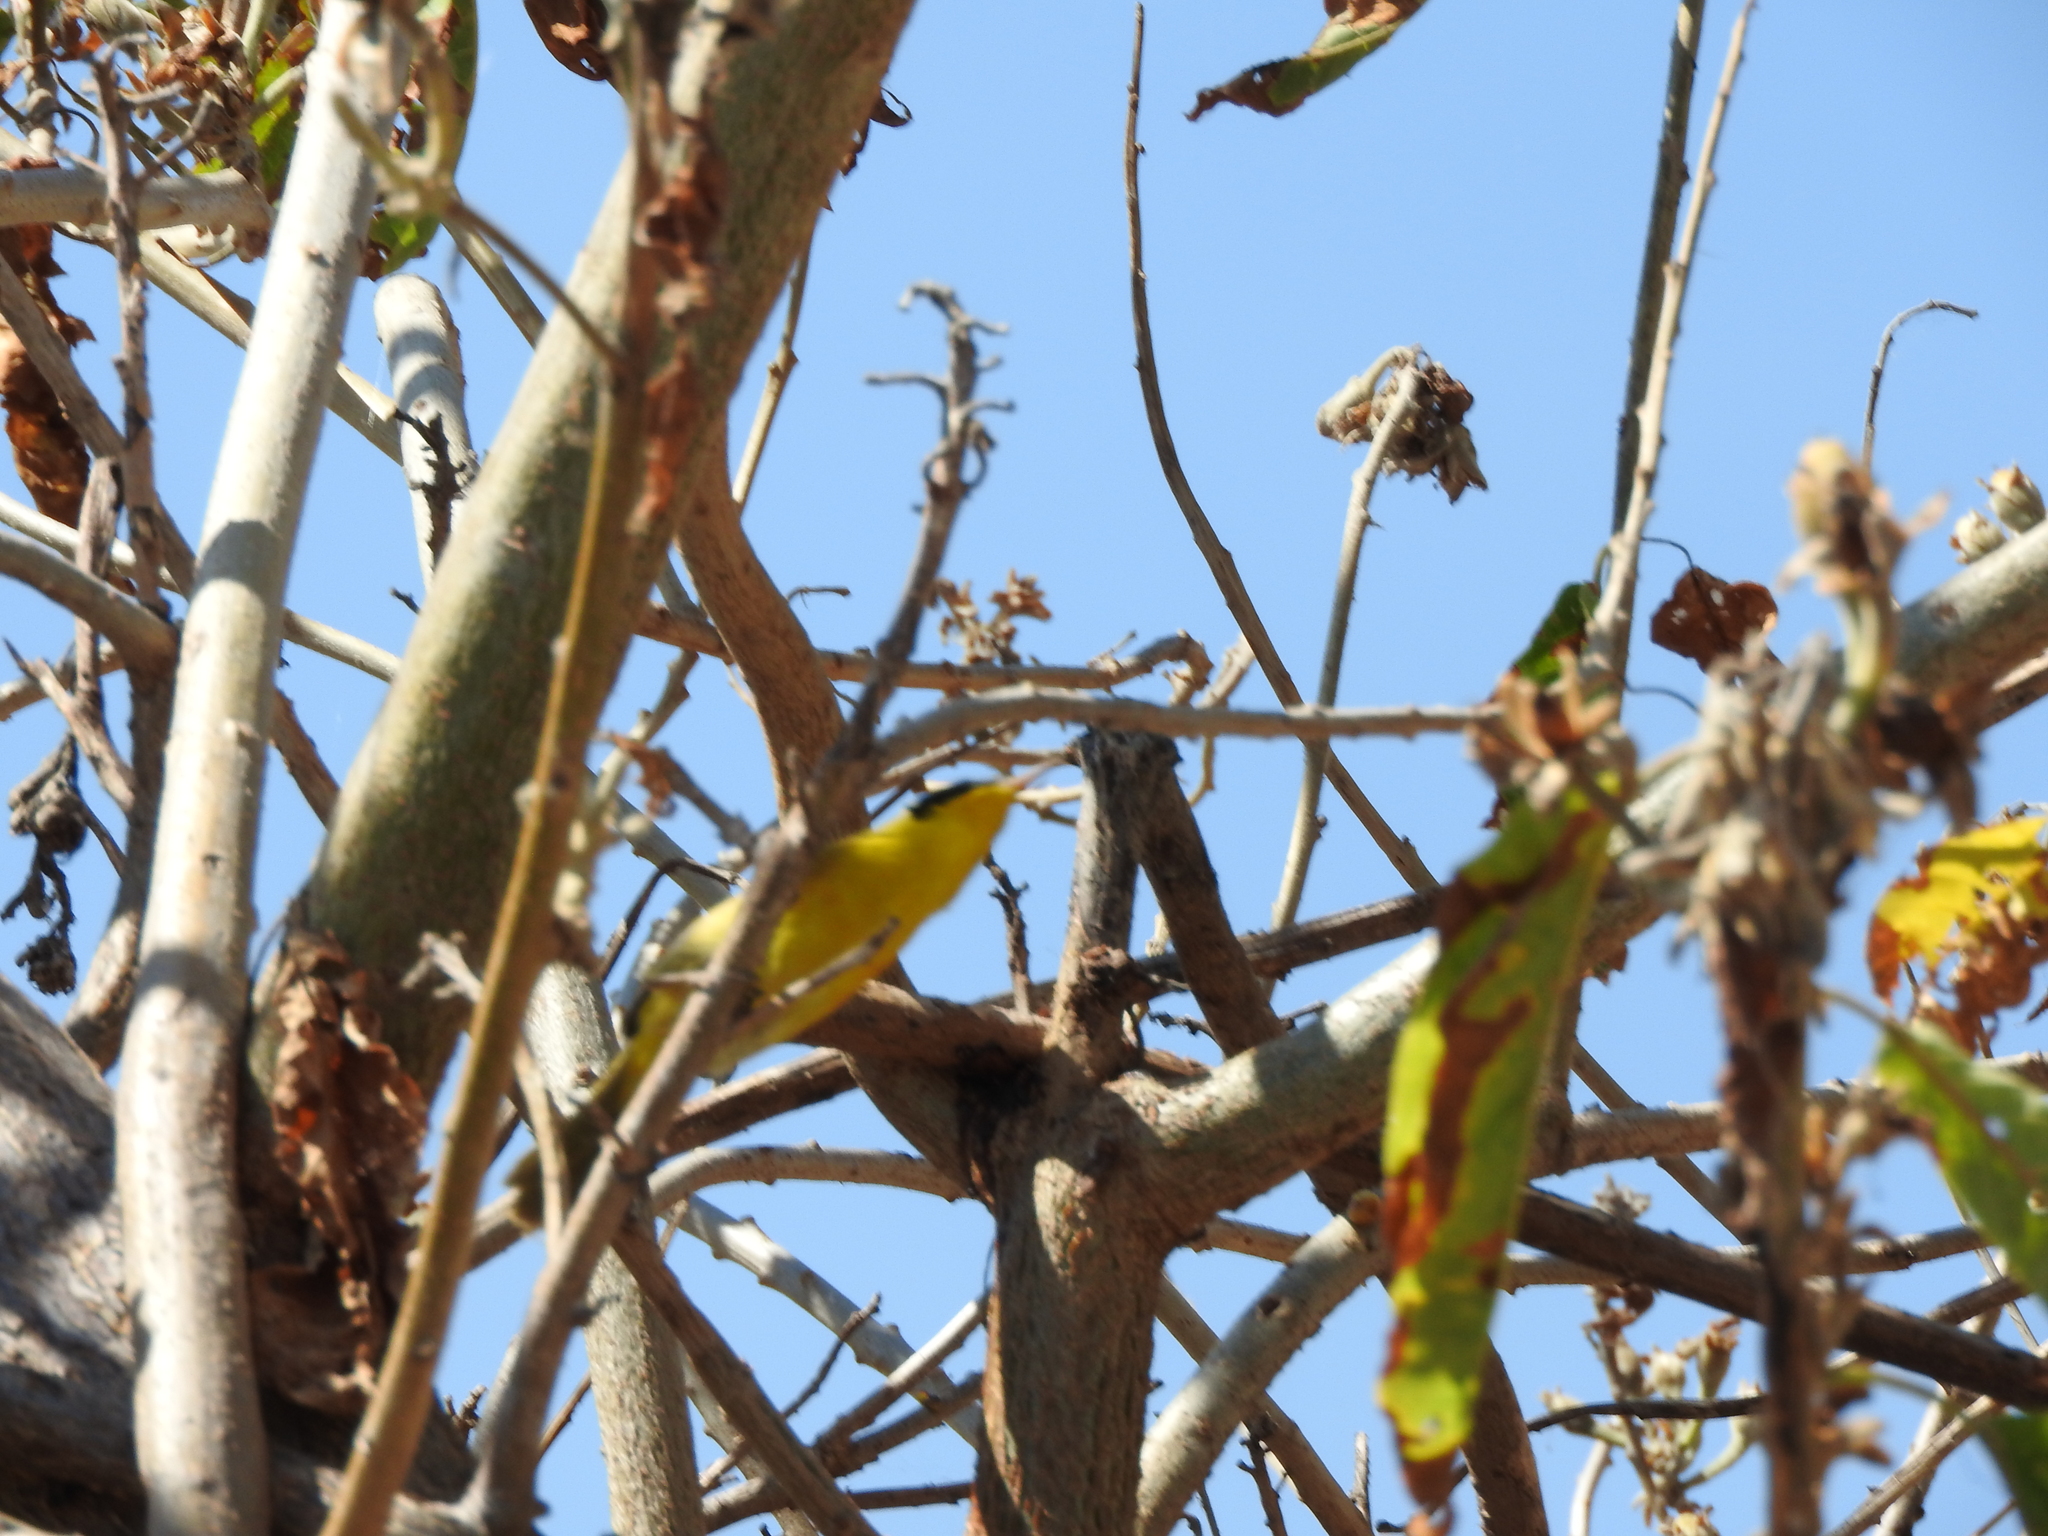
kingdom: Animalia
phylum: Chordata
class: Aves
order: Passeriformes
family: Parulidae
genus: Geothlypis
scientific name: Geothlypis trichas
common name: Common yellowthroat
